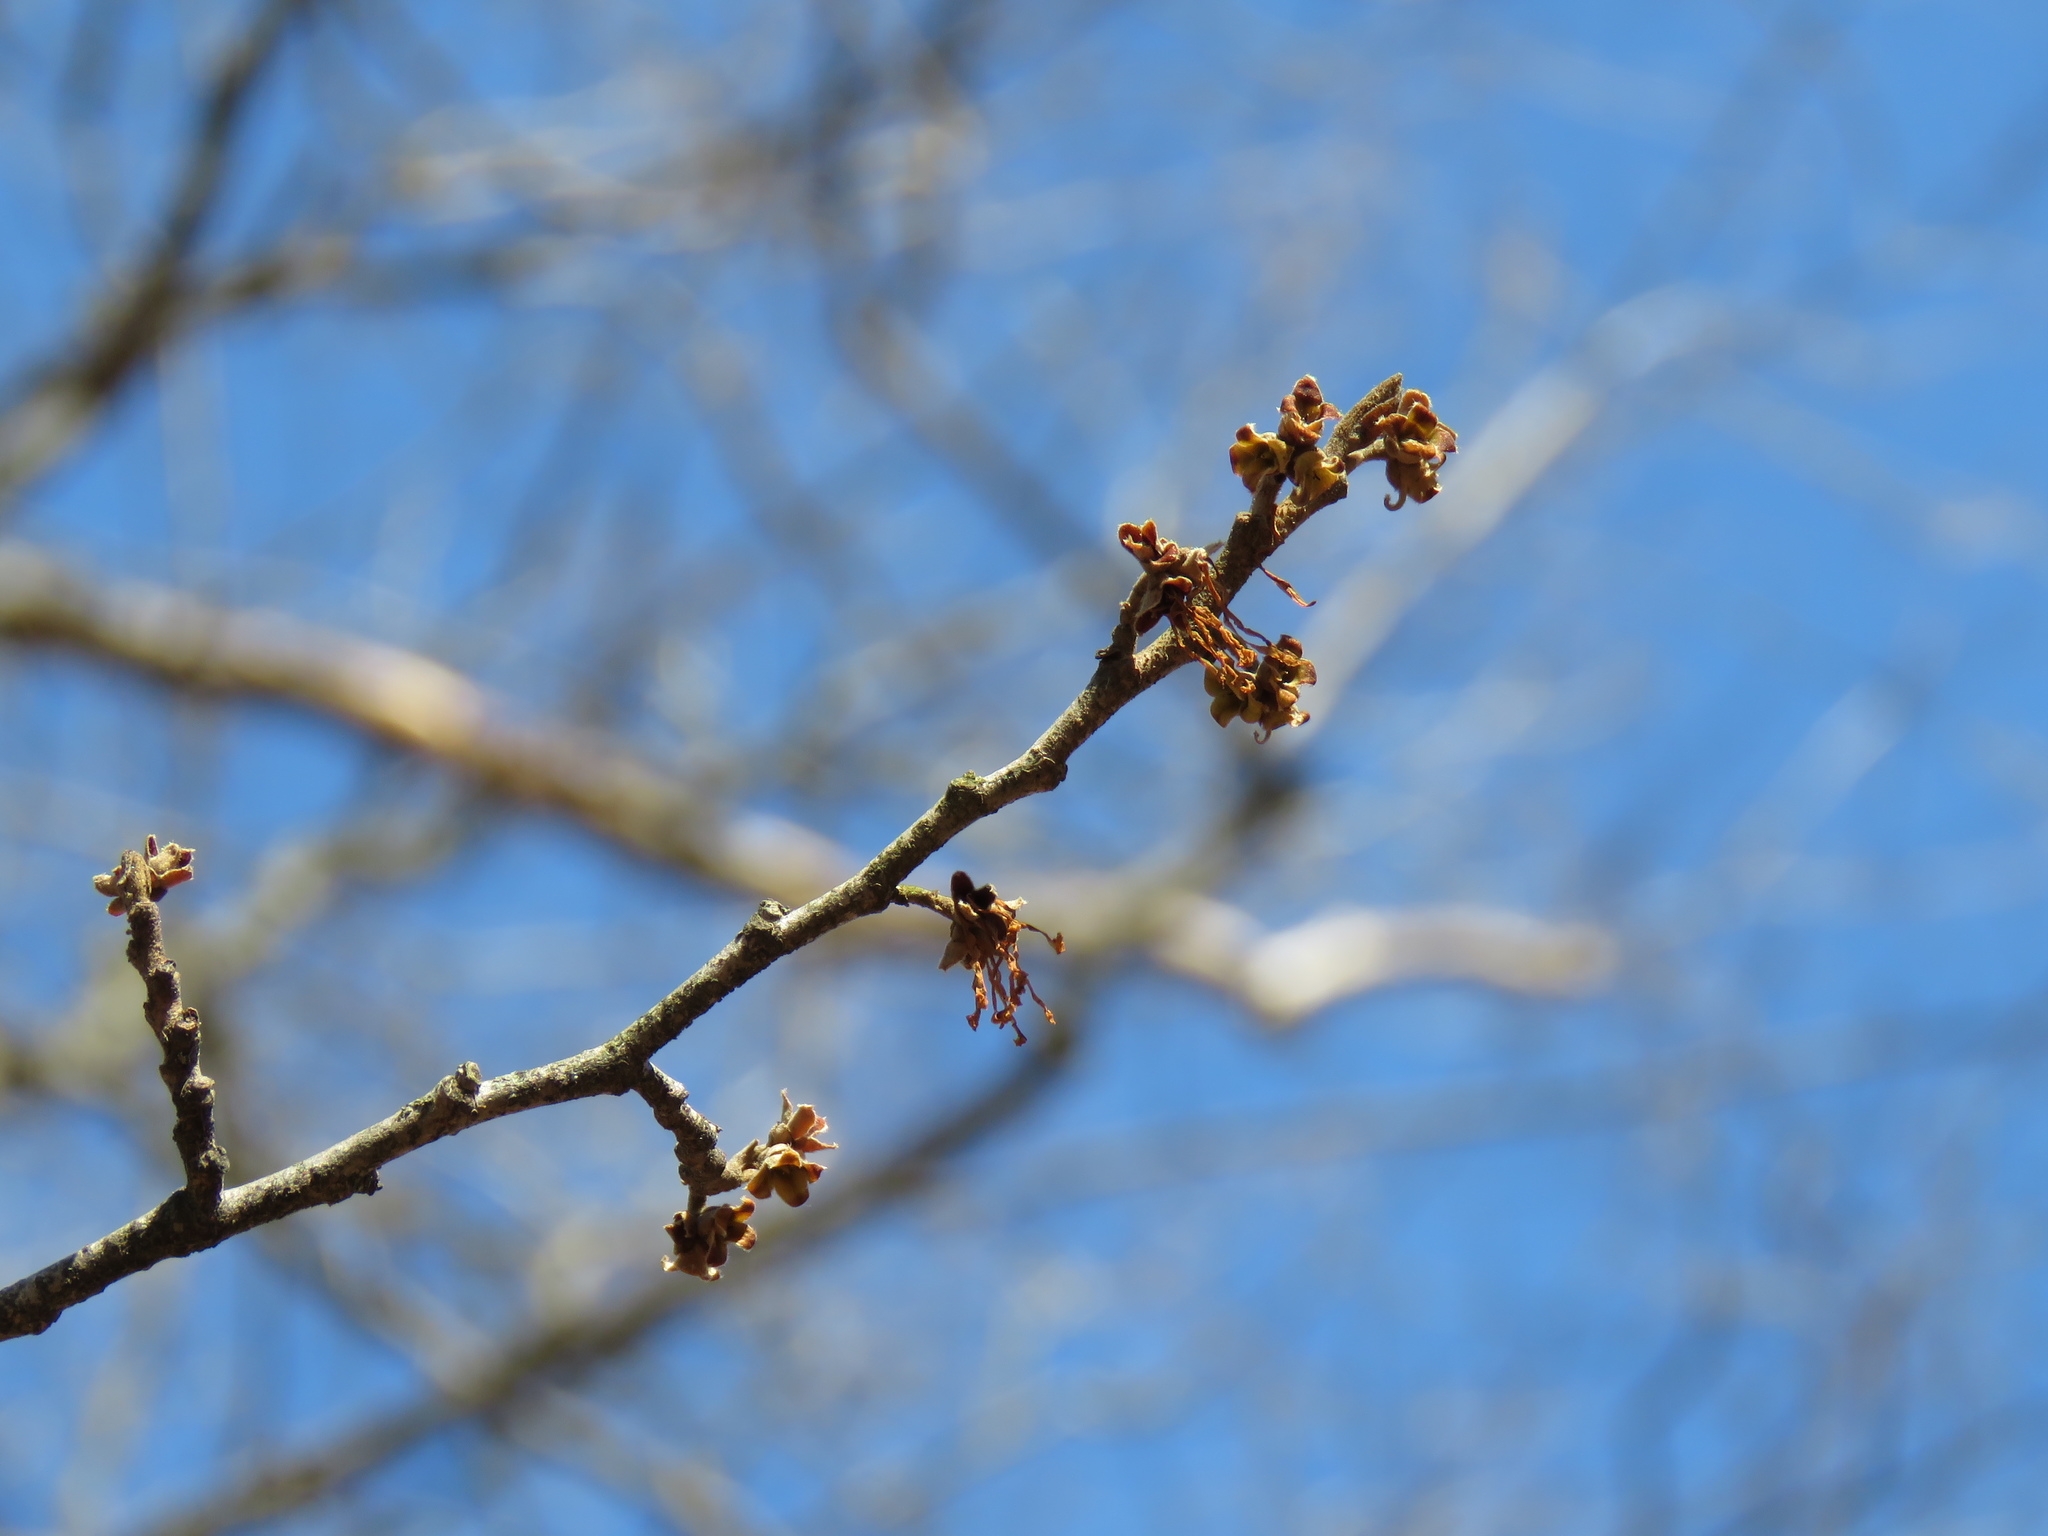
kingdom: Plantae
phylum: Tracheophyta
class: Magnoliopsida
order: Saxifragales
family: Hamamelidaceae
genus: Hamamelis
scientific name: Hamamelis virginiana
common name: Witch-hazel
